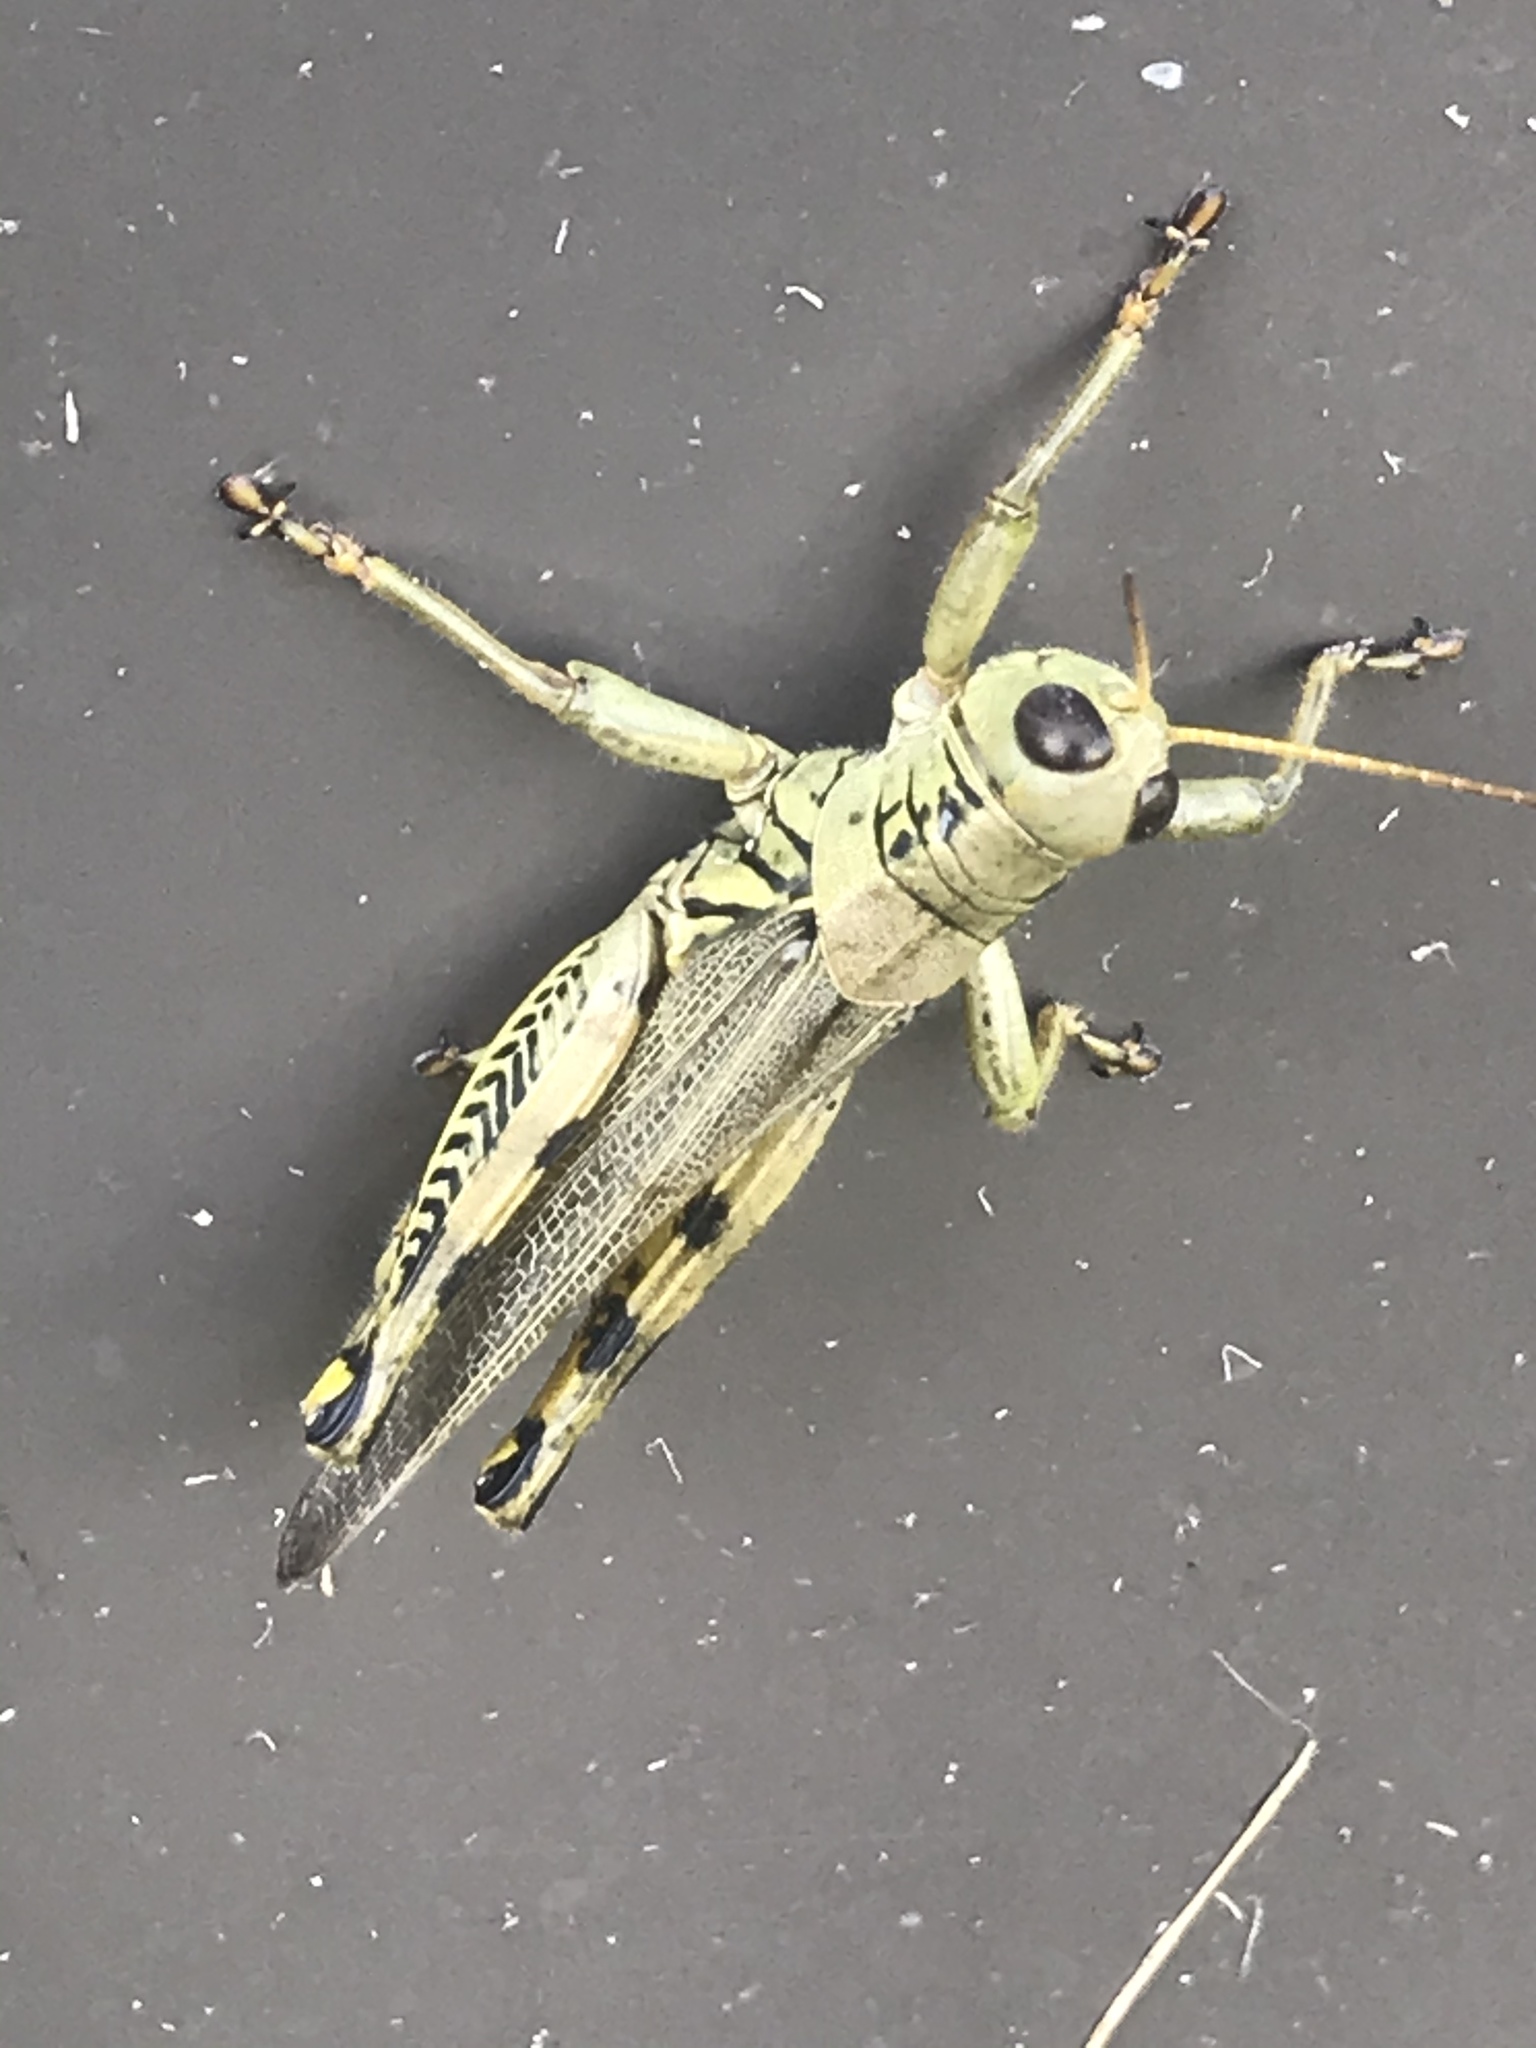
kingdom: Animalia
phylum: Arthropoda
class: Insecta
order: Orthoptera
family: Acrididae
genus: Melanoplus
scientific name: Melanoplus differentialis
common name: Differential grasshopper
